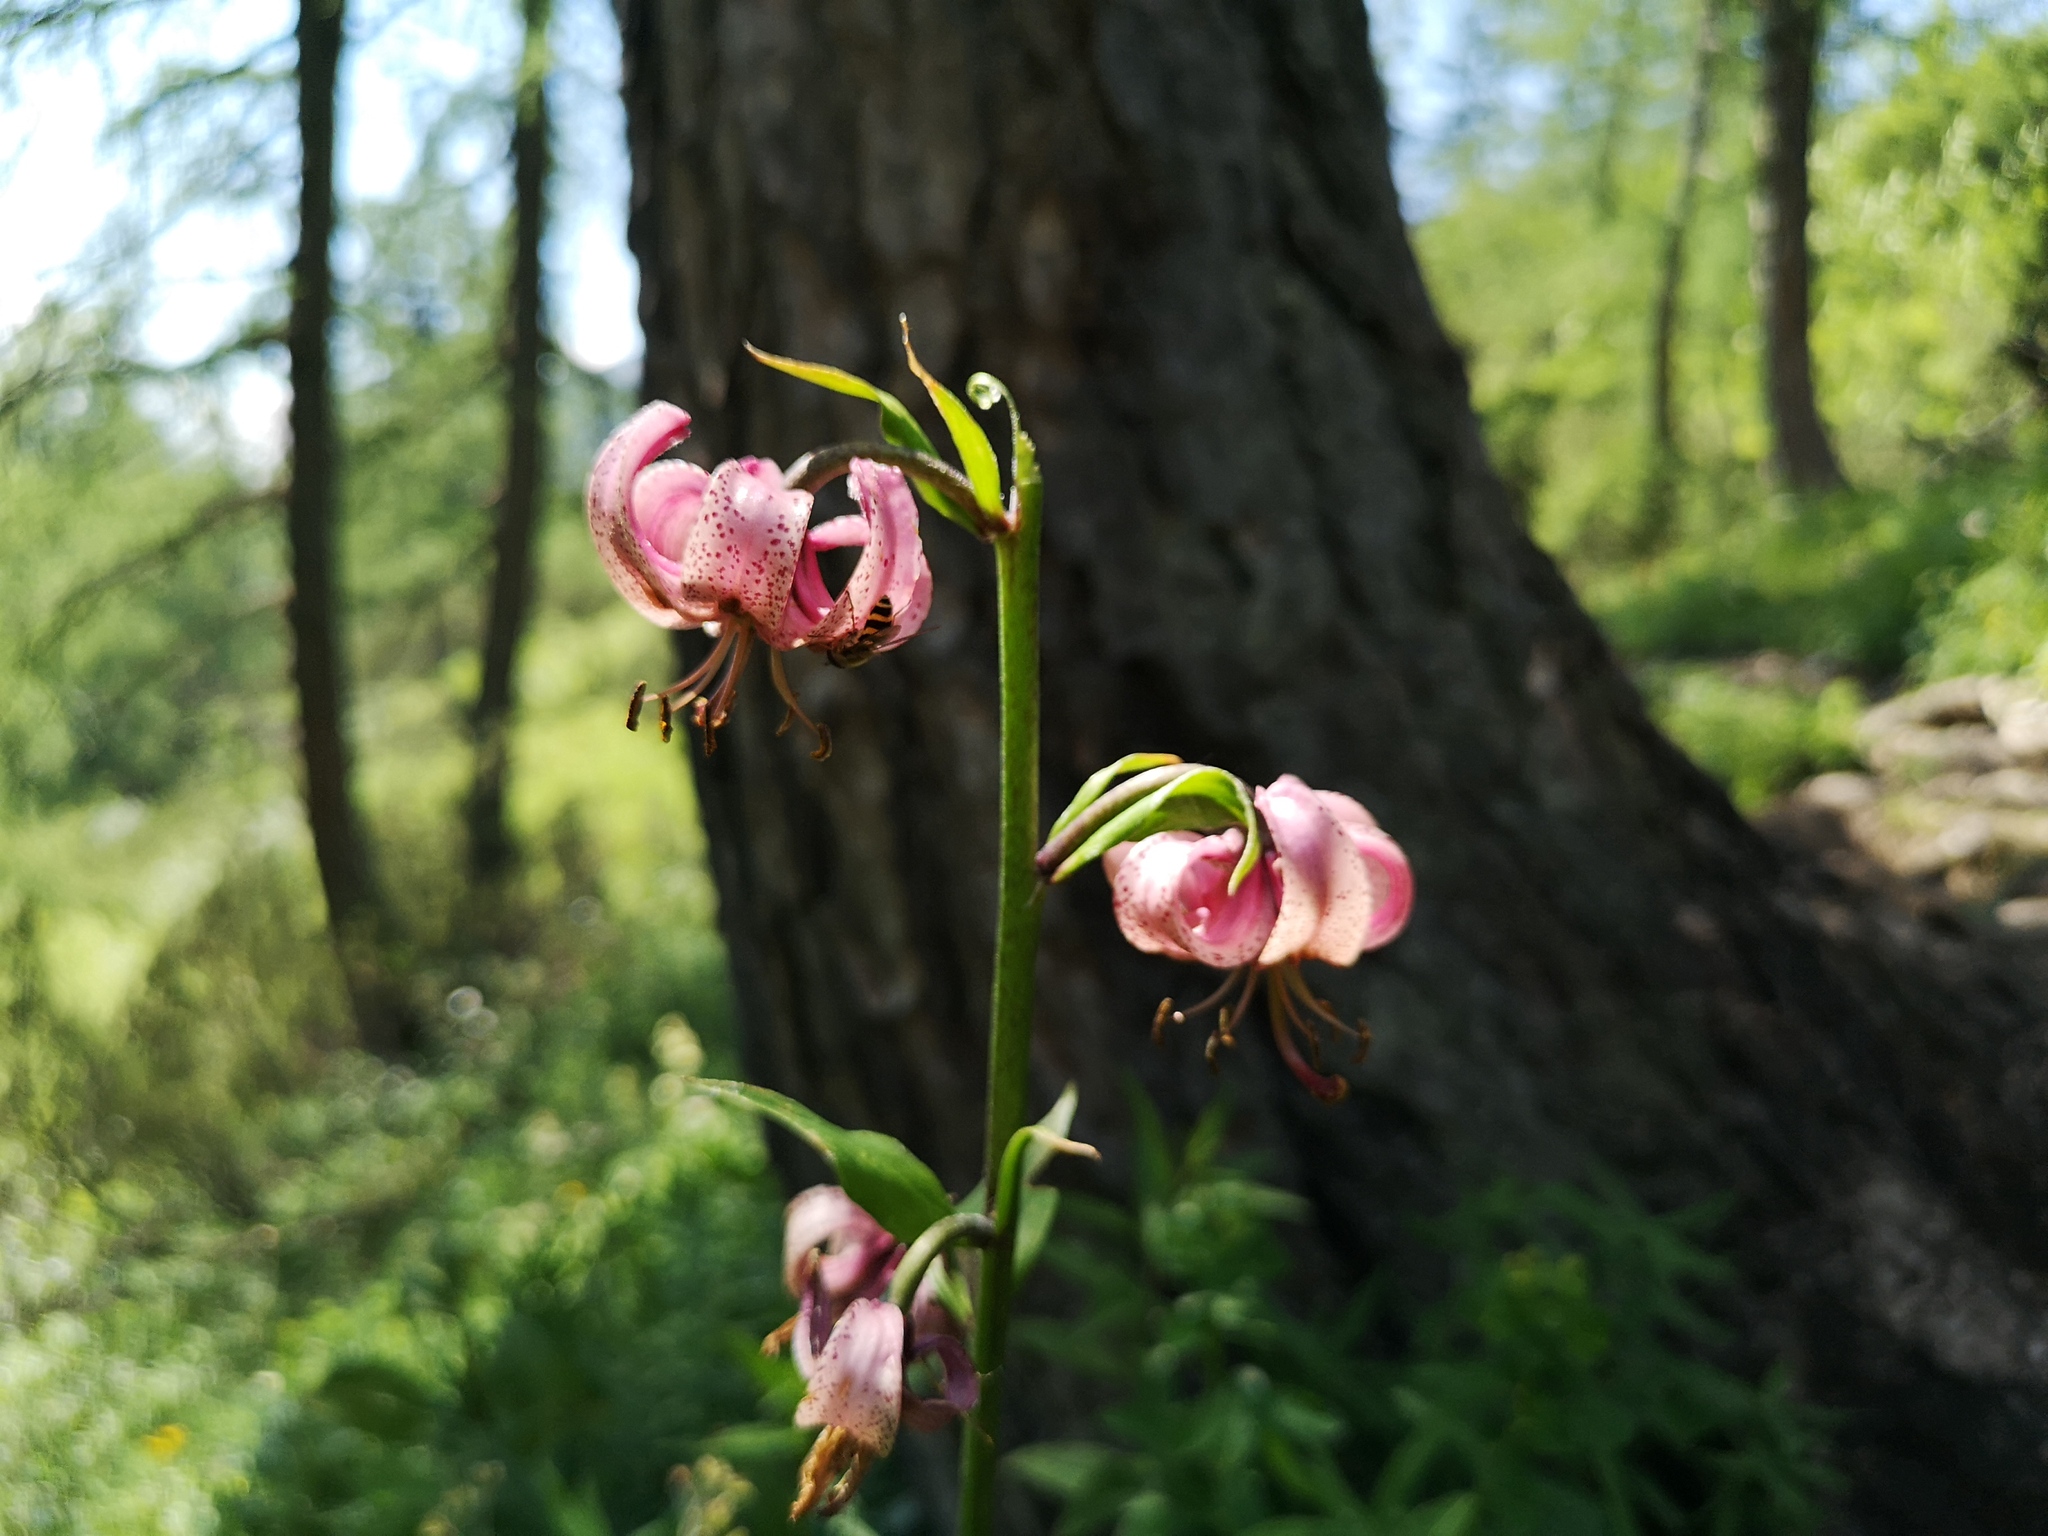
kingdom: Plantae
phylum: Tracheophyta
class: Liliopsida
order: Liliales
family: Liliaceae
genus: Lilium
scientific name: Lilium martagon
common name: Martagon lily
